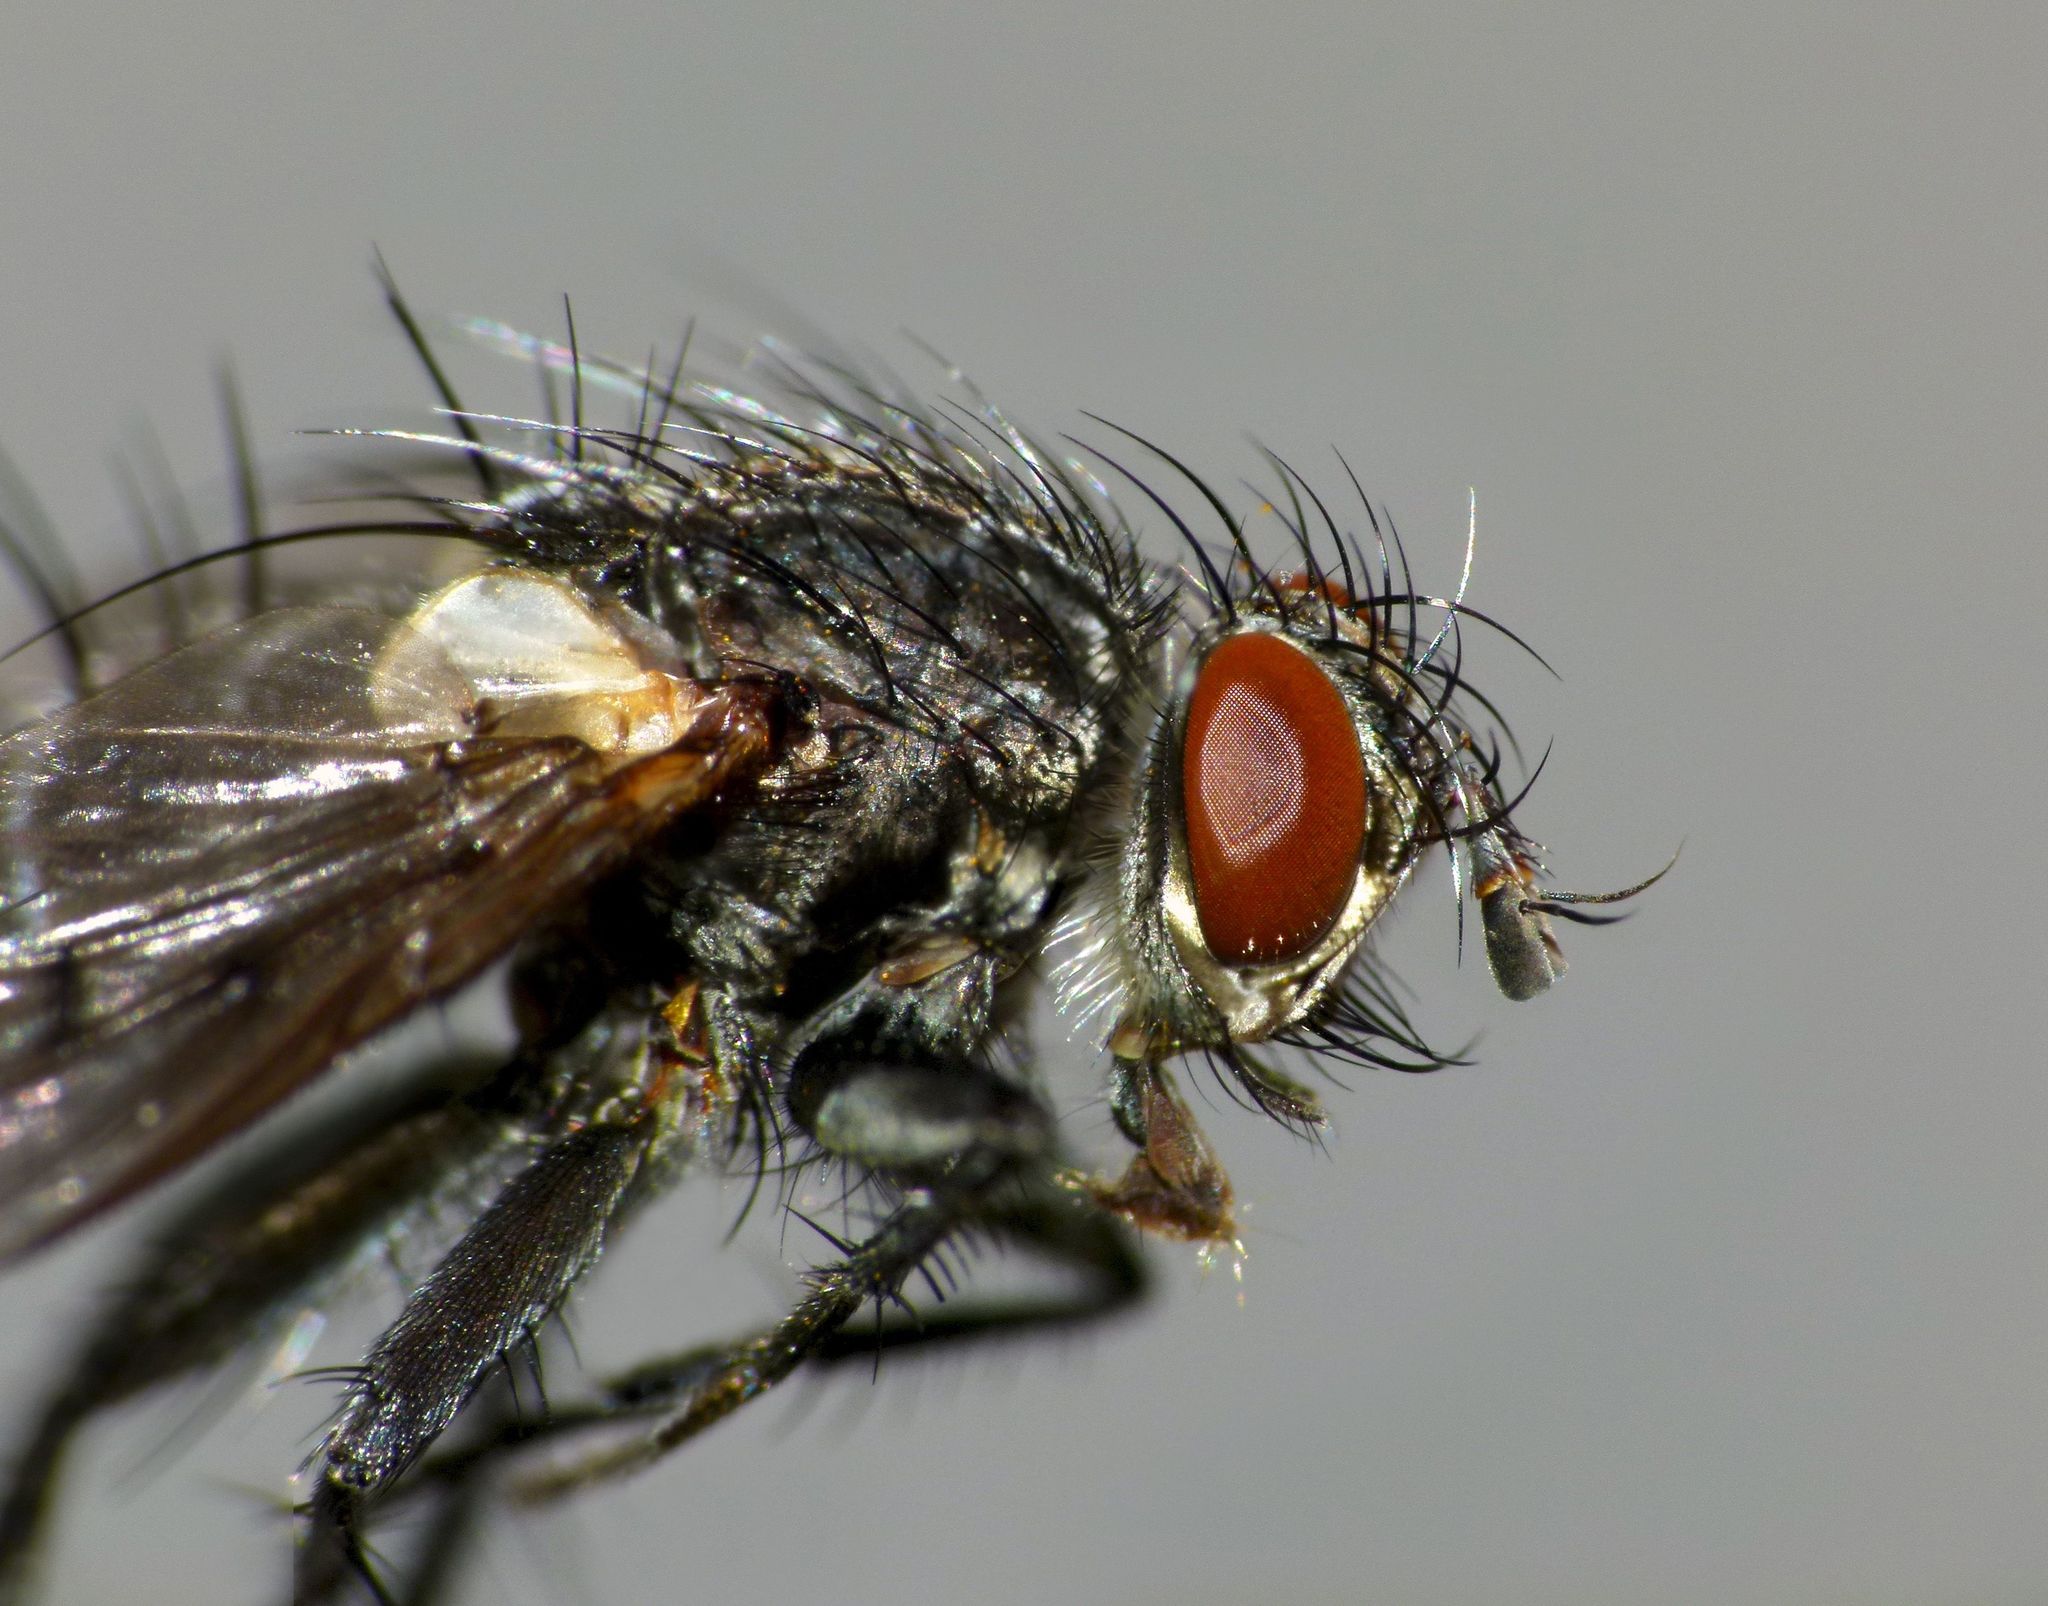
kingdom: Animalia
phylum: Arthropoda
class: Insecta
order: Diptera
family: Tachinidae
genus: Calcager
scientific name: Calcager apertum
